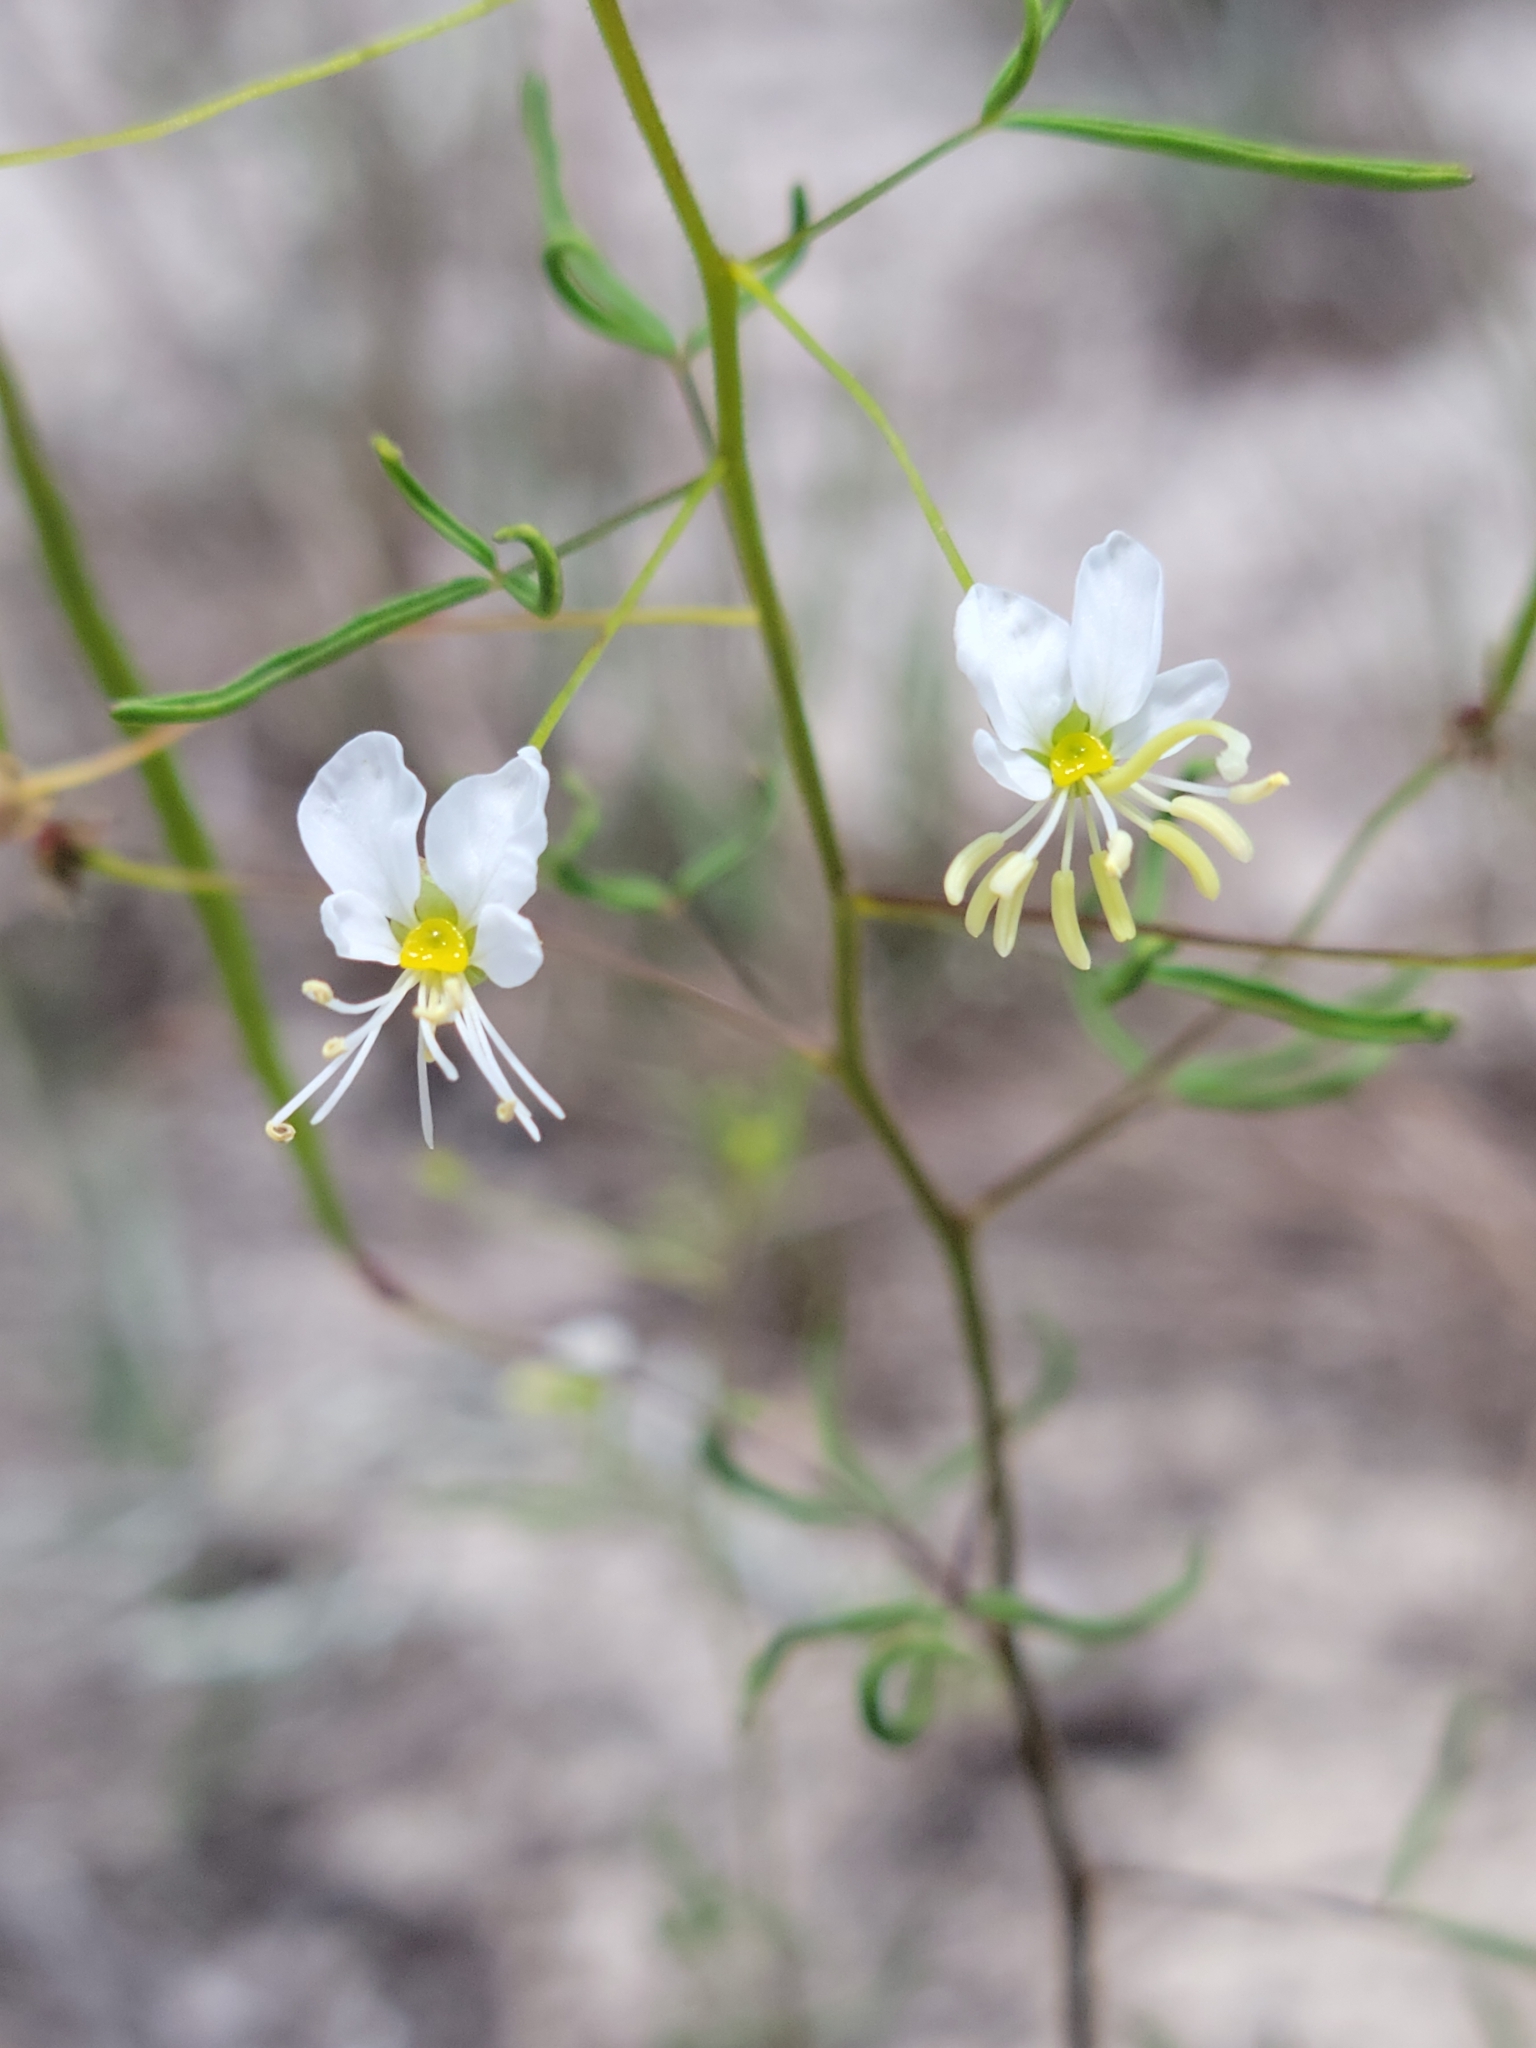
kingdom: Plantae
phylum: Tracheophyta
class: Magnoliopsida
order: Brassicales
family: Cleomaceae
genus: Polanisia
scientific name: Polanisia tenuifolia
